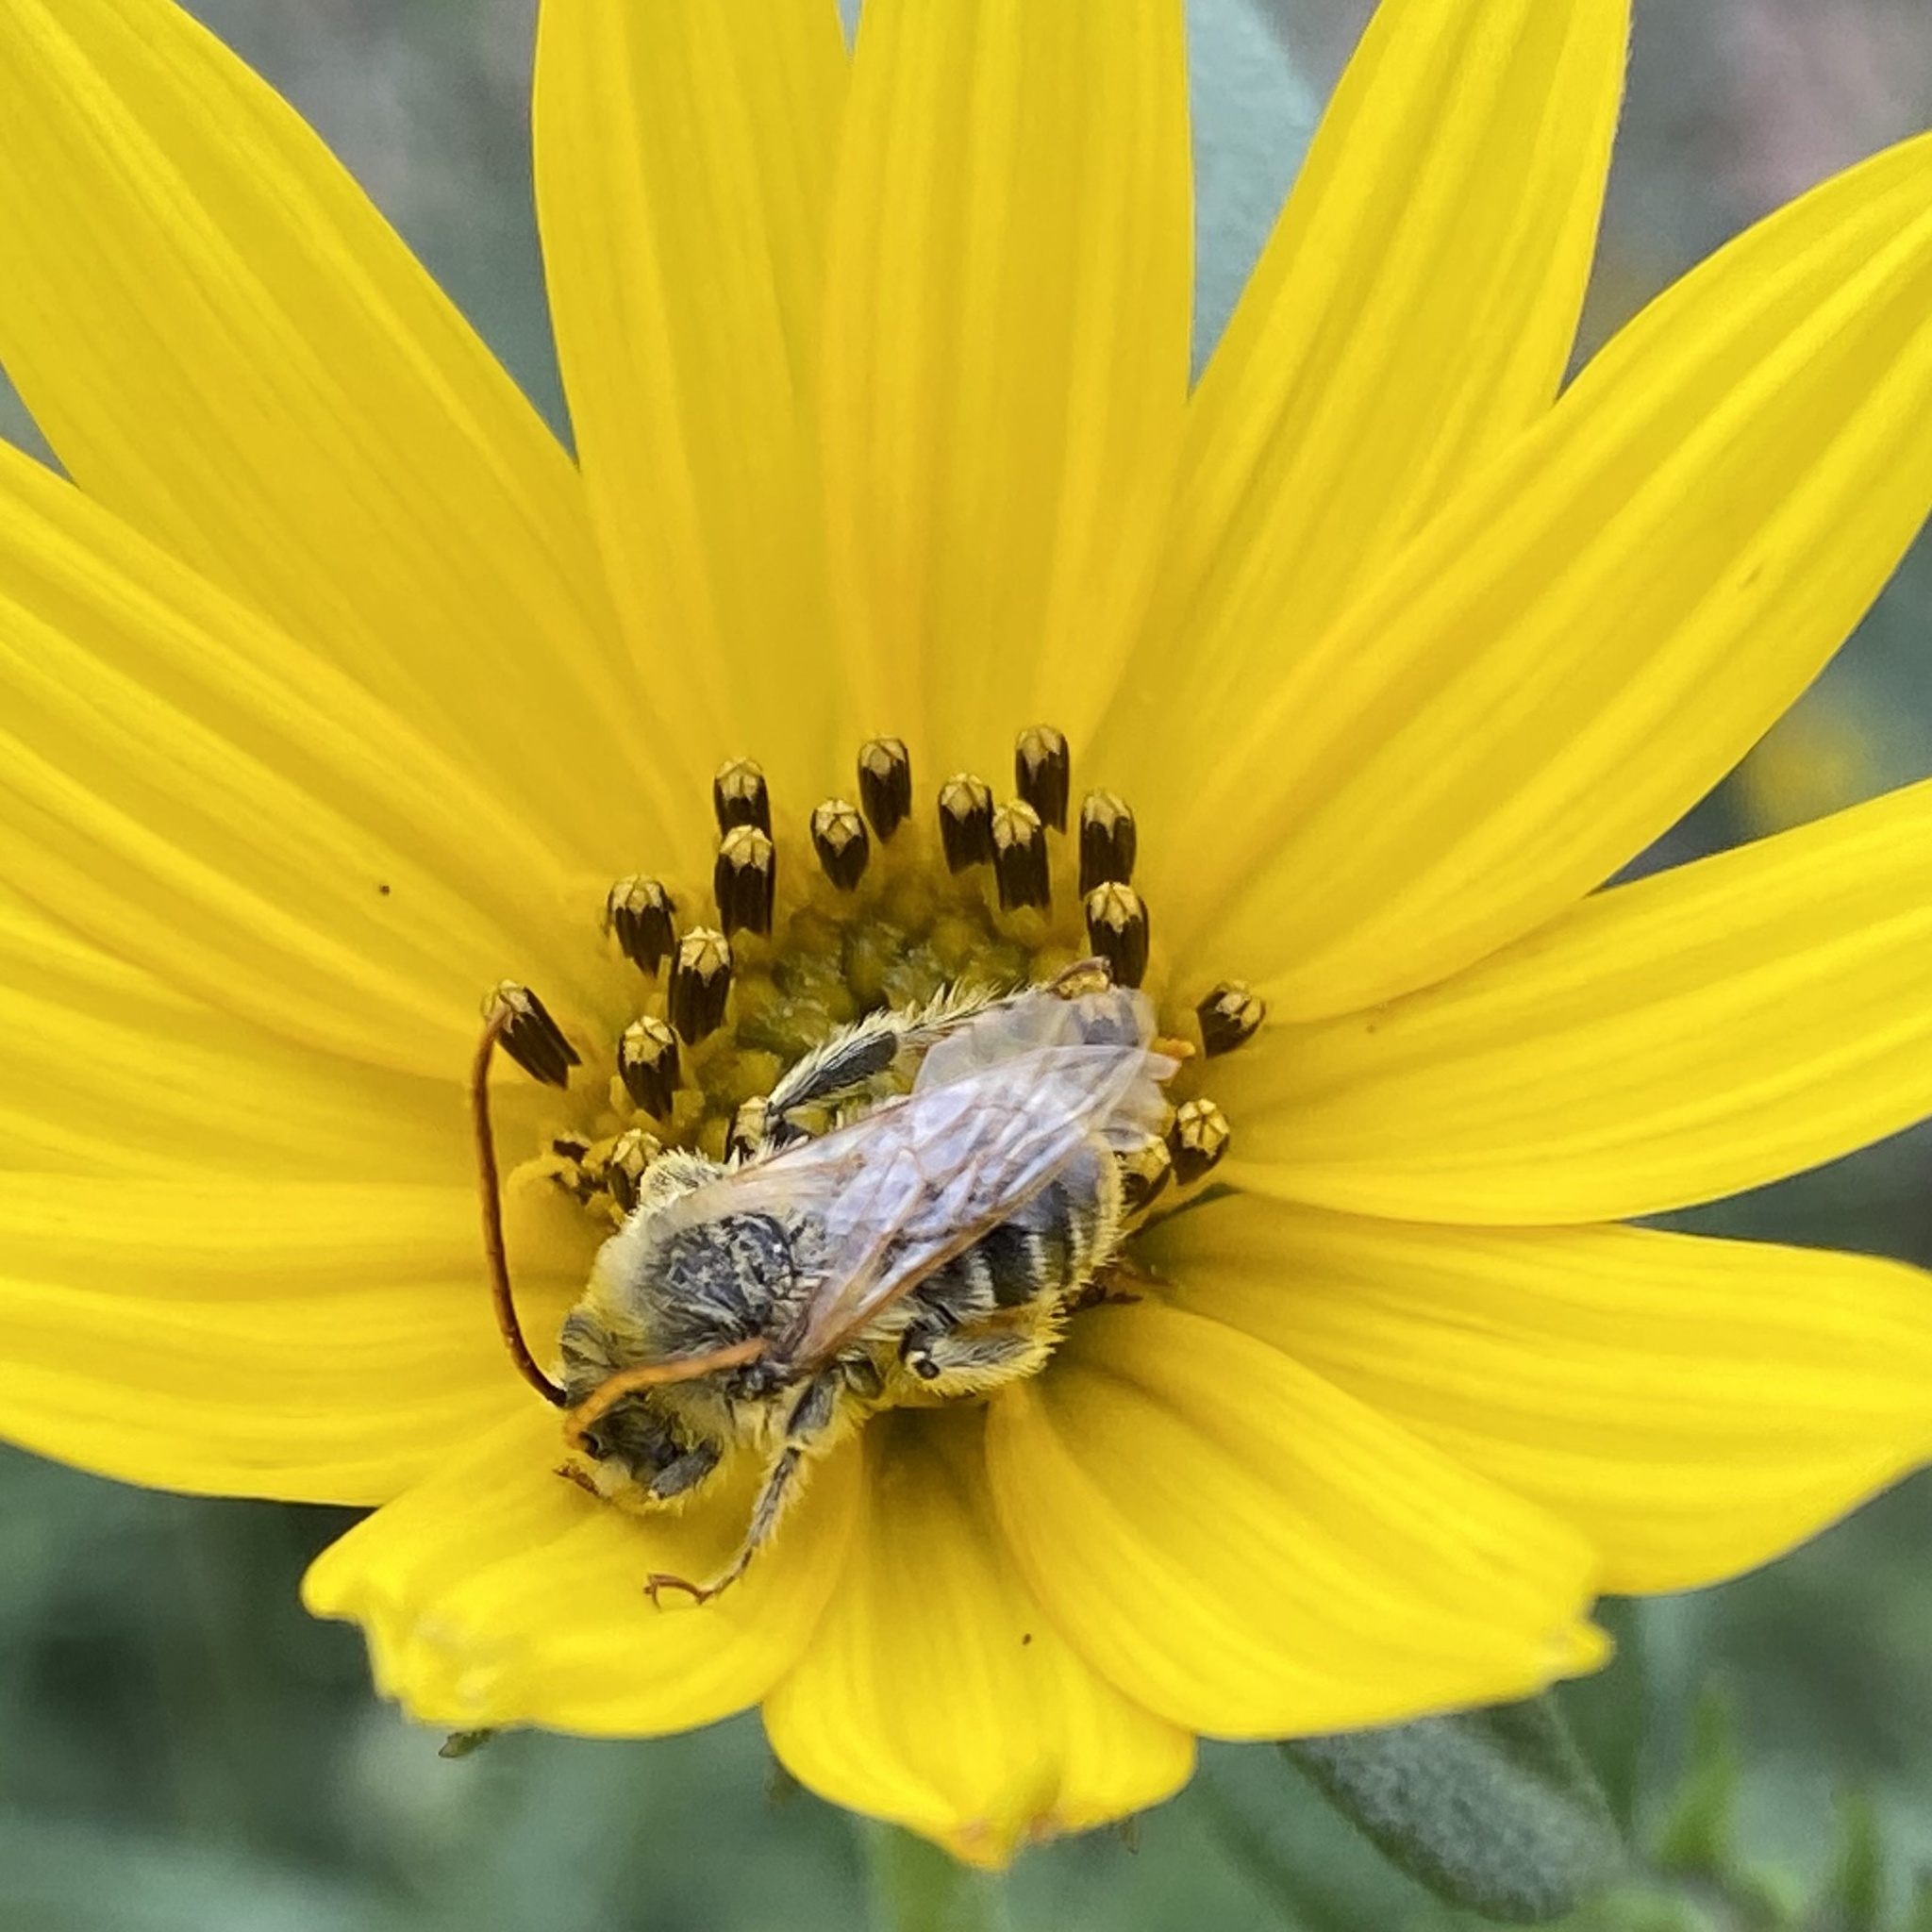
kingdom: Animalia
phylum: Arthropoda
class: Insecta
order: Hymenoptera
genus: Eumelissodes
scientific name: Eumelissodes
